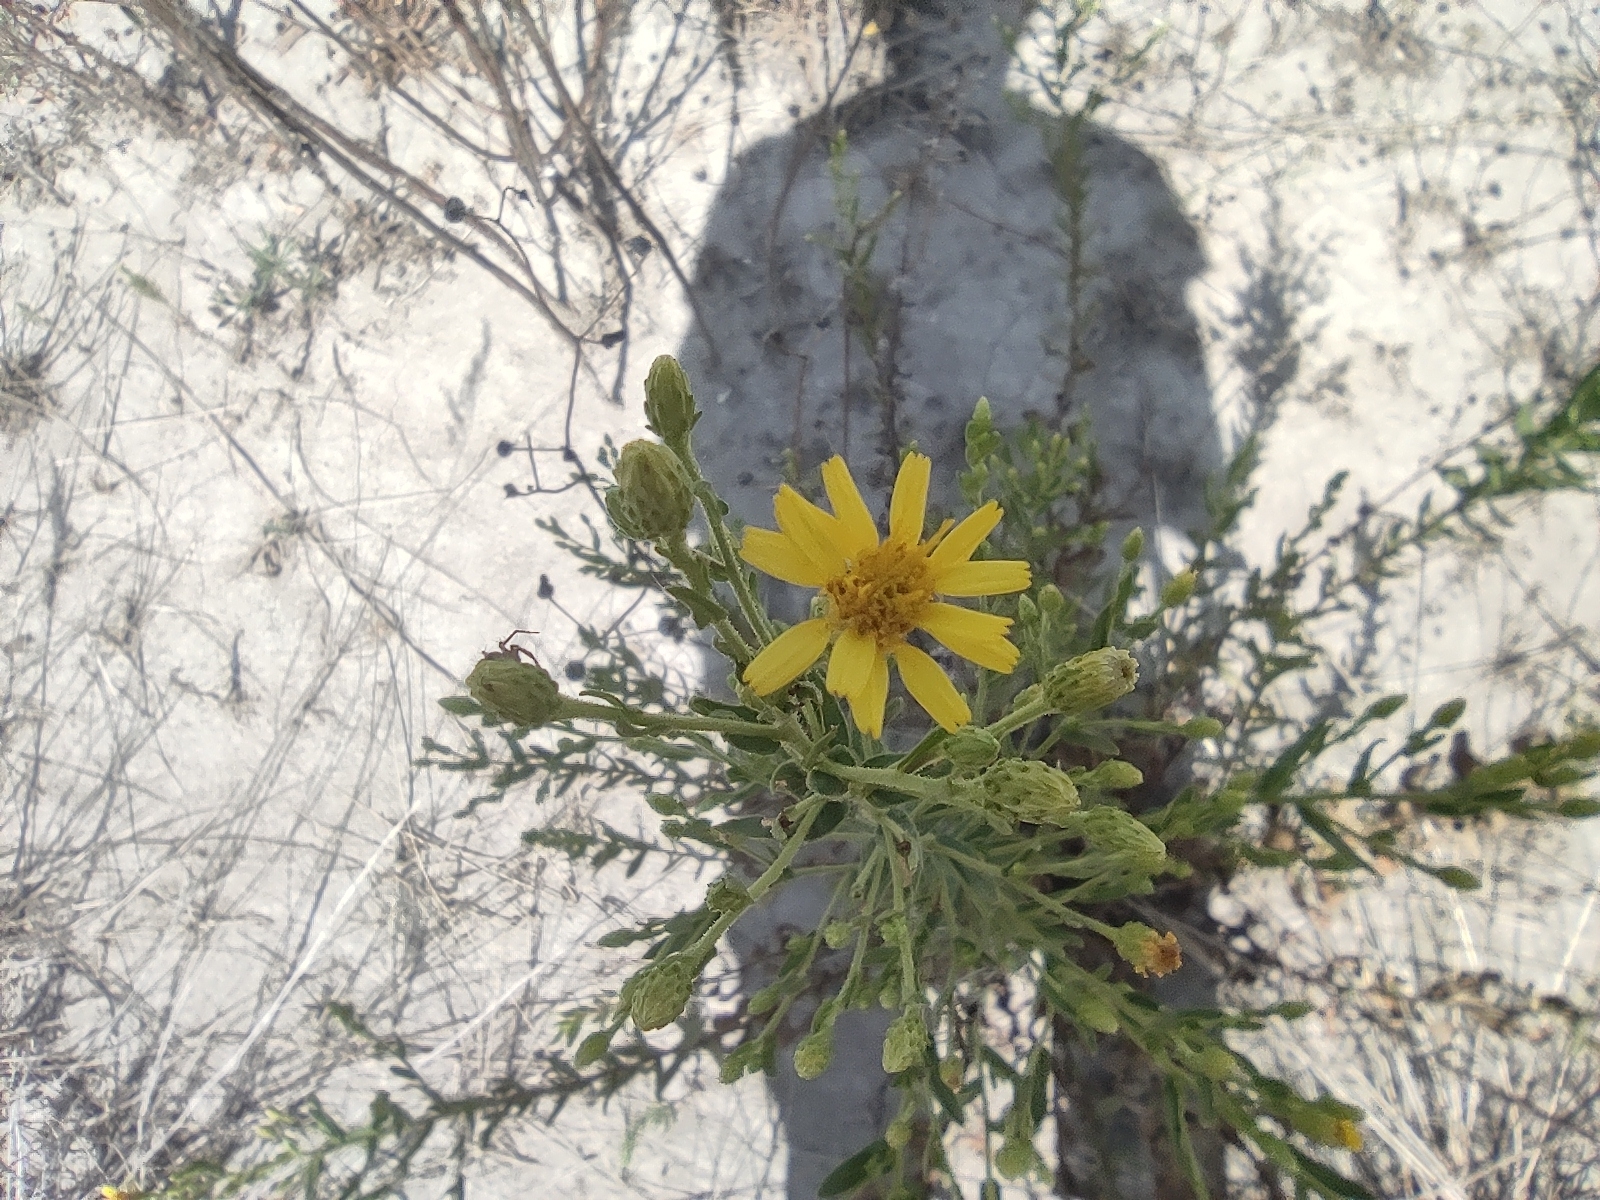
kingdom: Plantae
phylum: Tracheophyta
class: Magnoliopsida
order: Asterales
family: Asteraceae
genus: Dittrichia
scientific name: Dittrichia viscosa
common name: Woody fleabane
